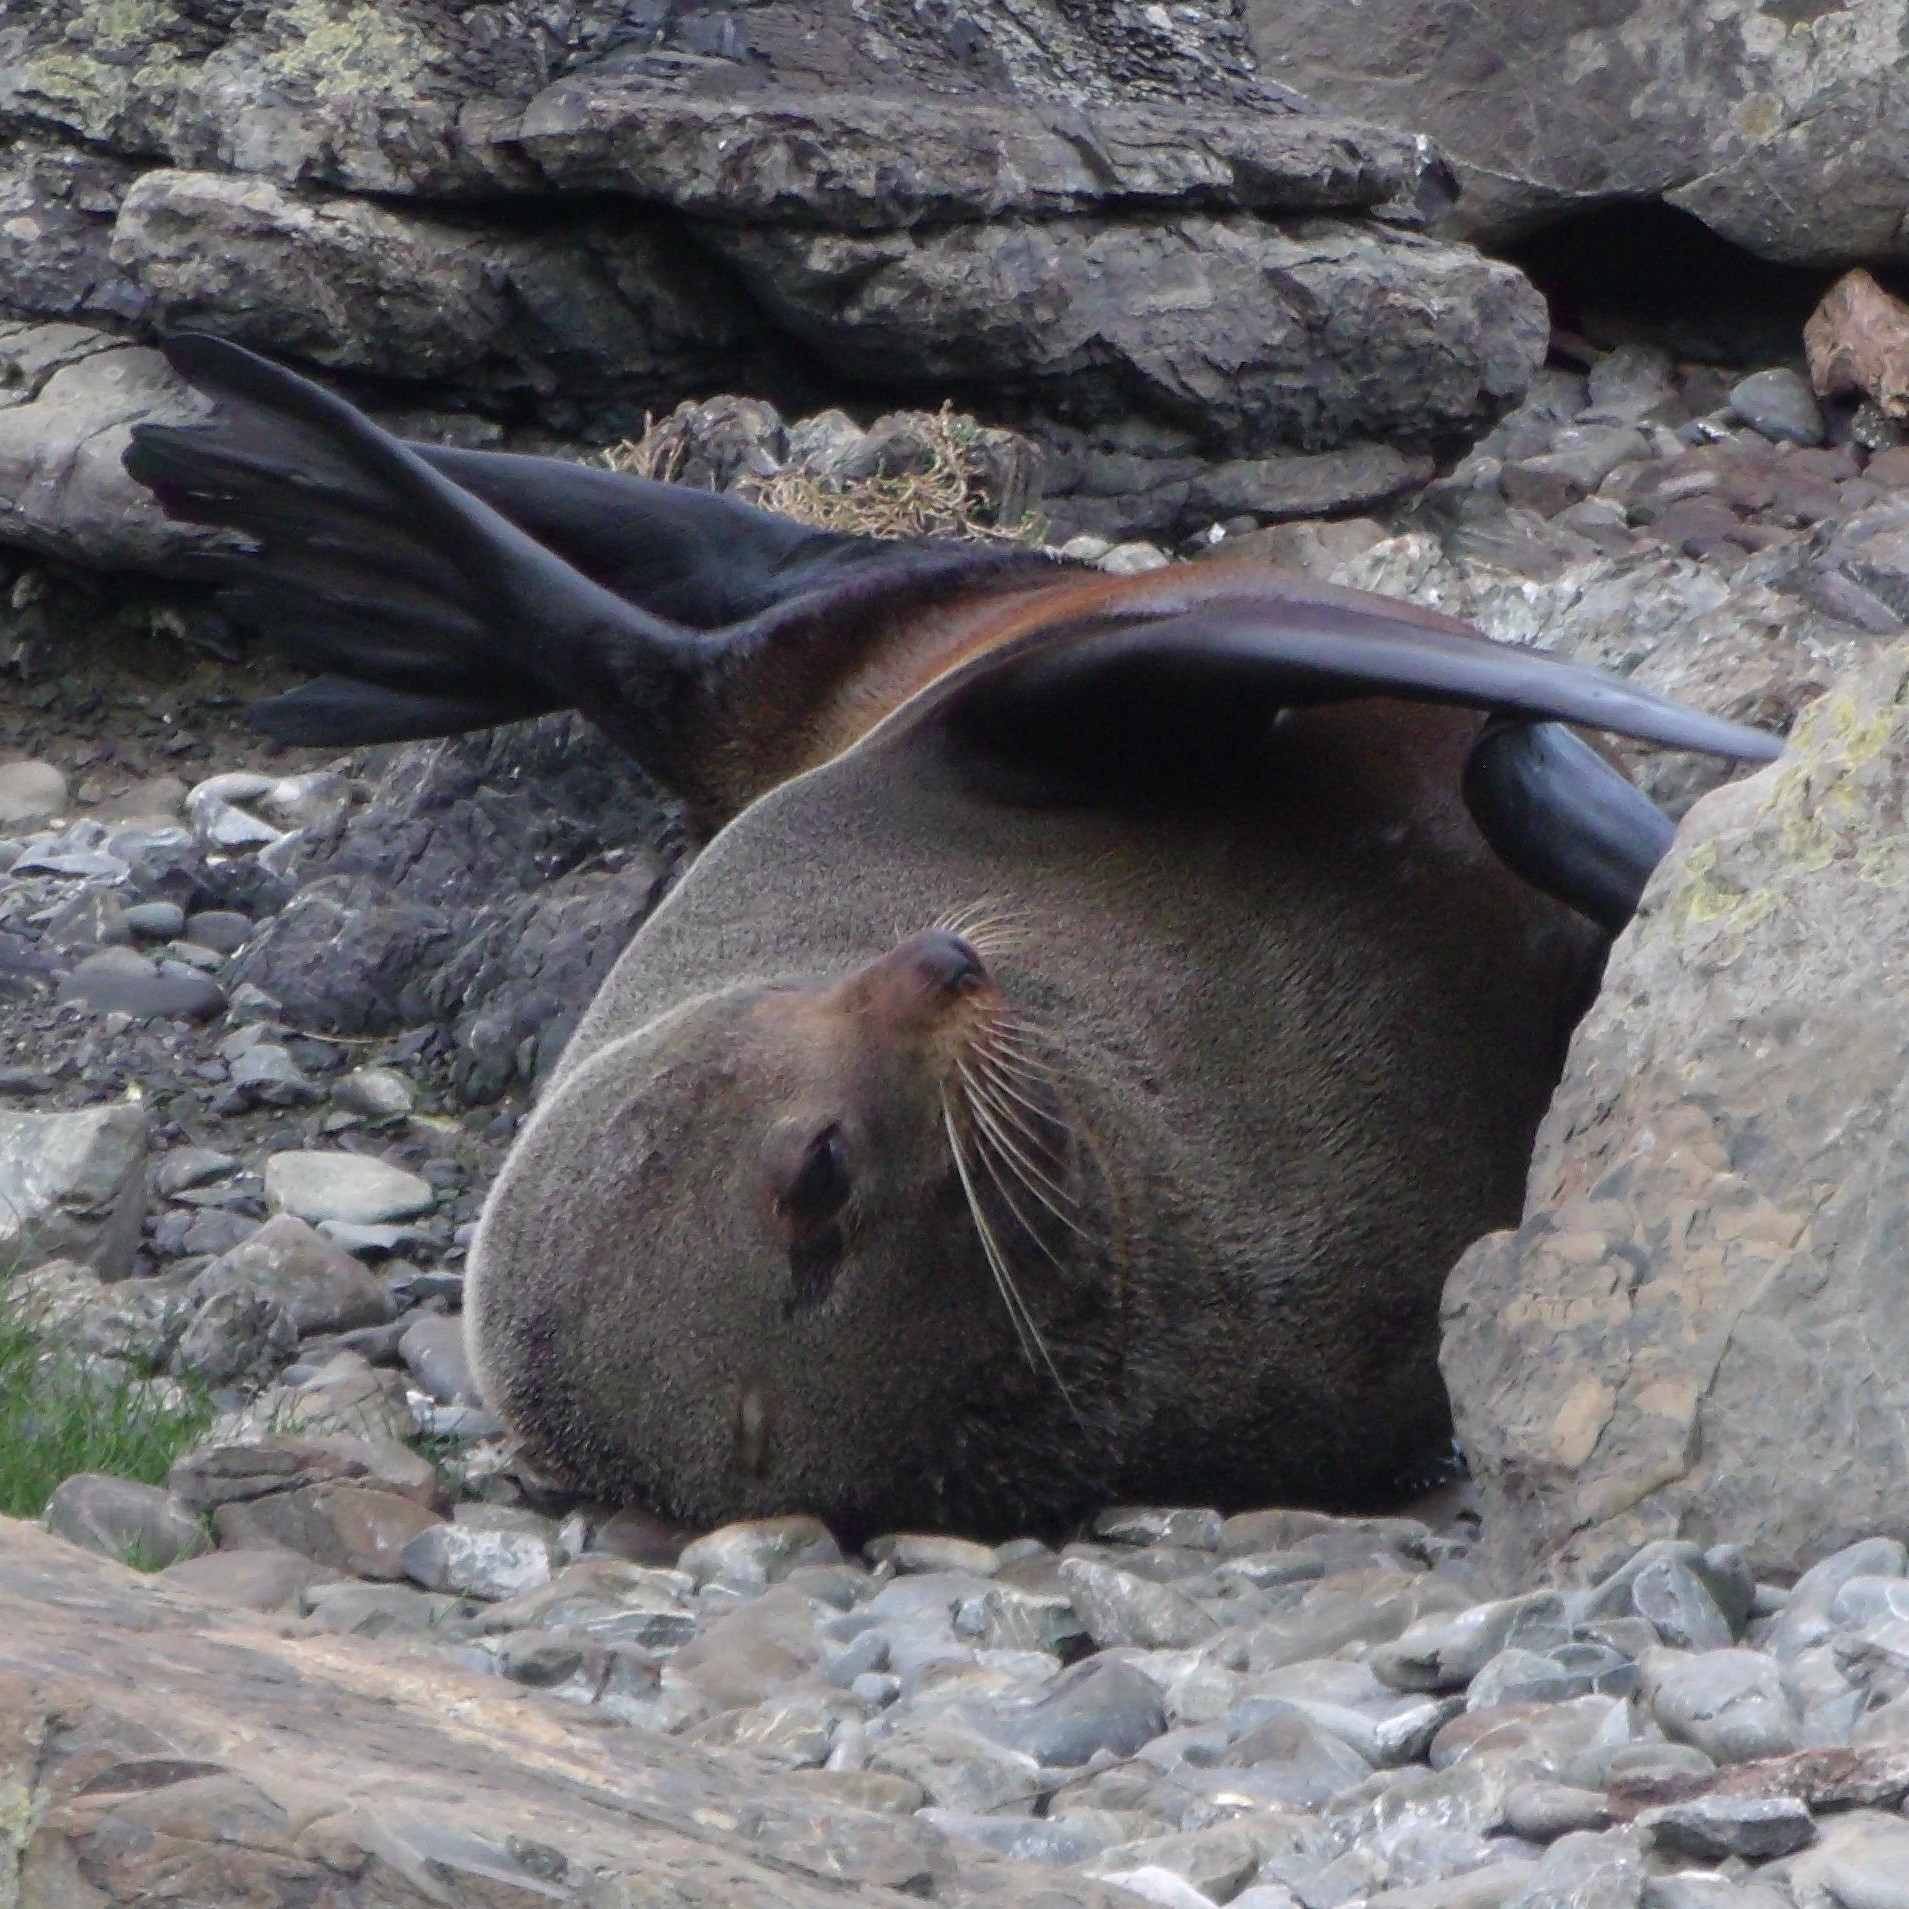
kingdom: Animalia
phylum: Chordata
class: Mammalia
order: Carnivora
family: Otariidae
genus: Arctocephalus
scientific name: Arctocephalus forsteri
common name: New zealand fur seal
